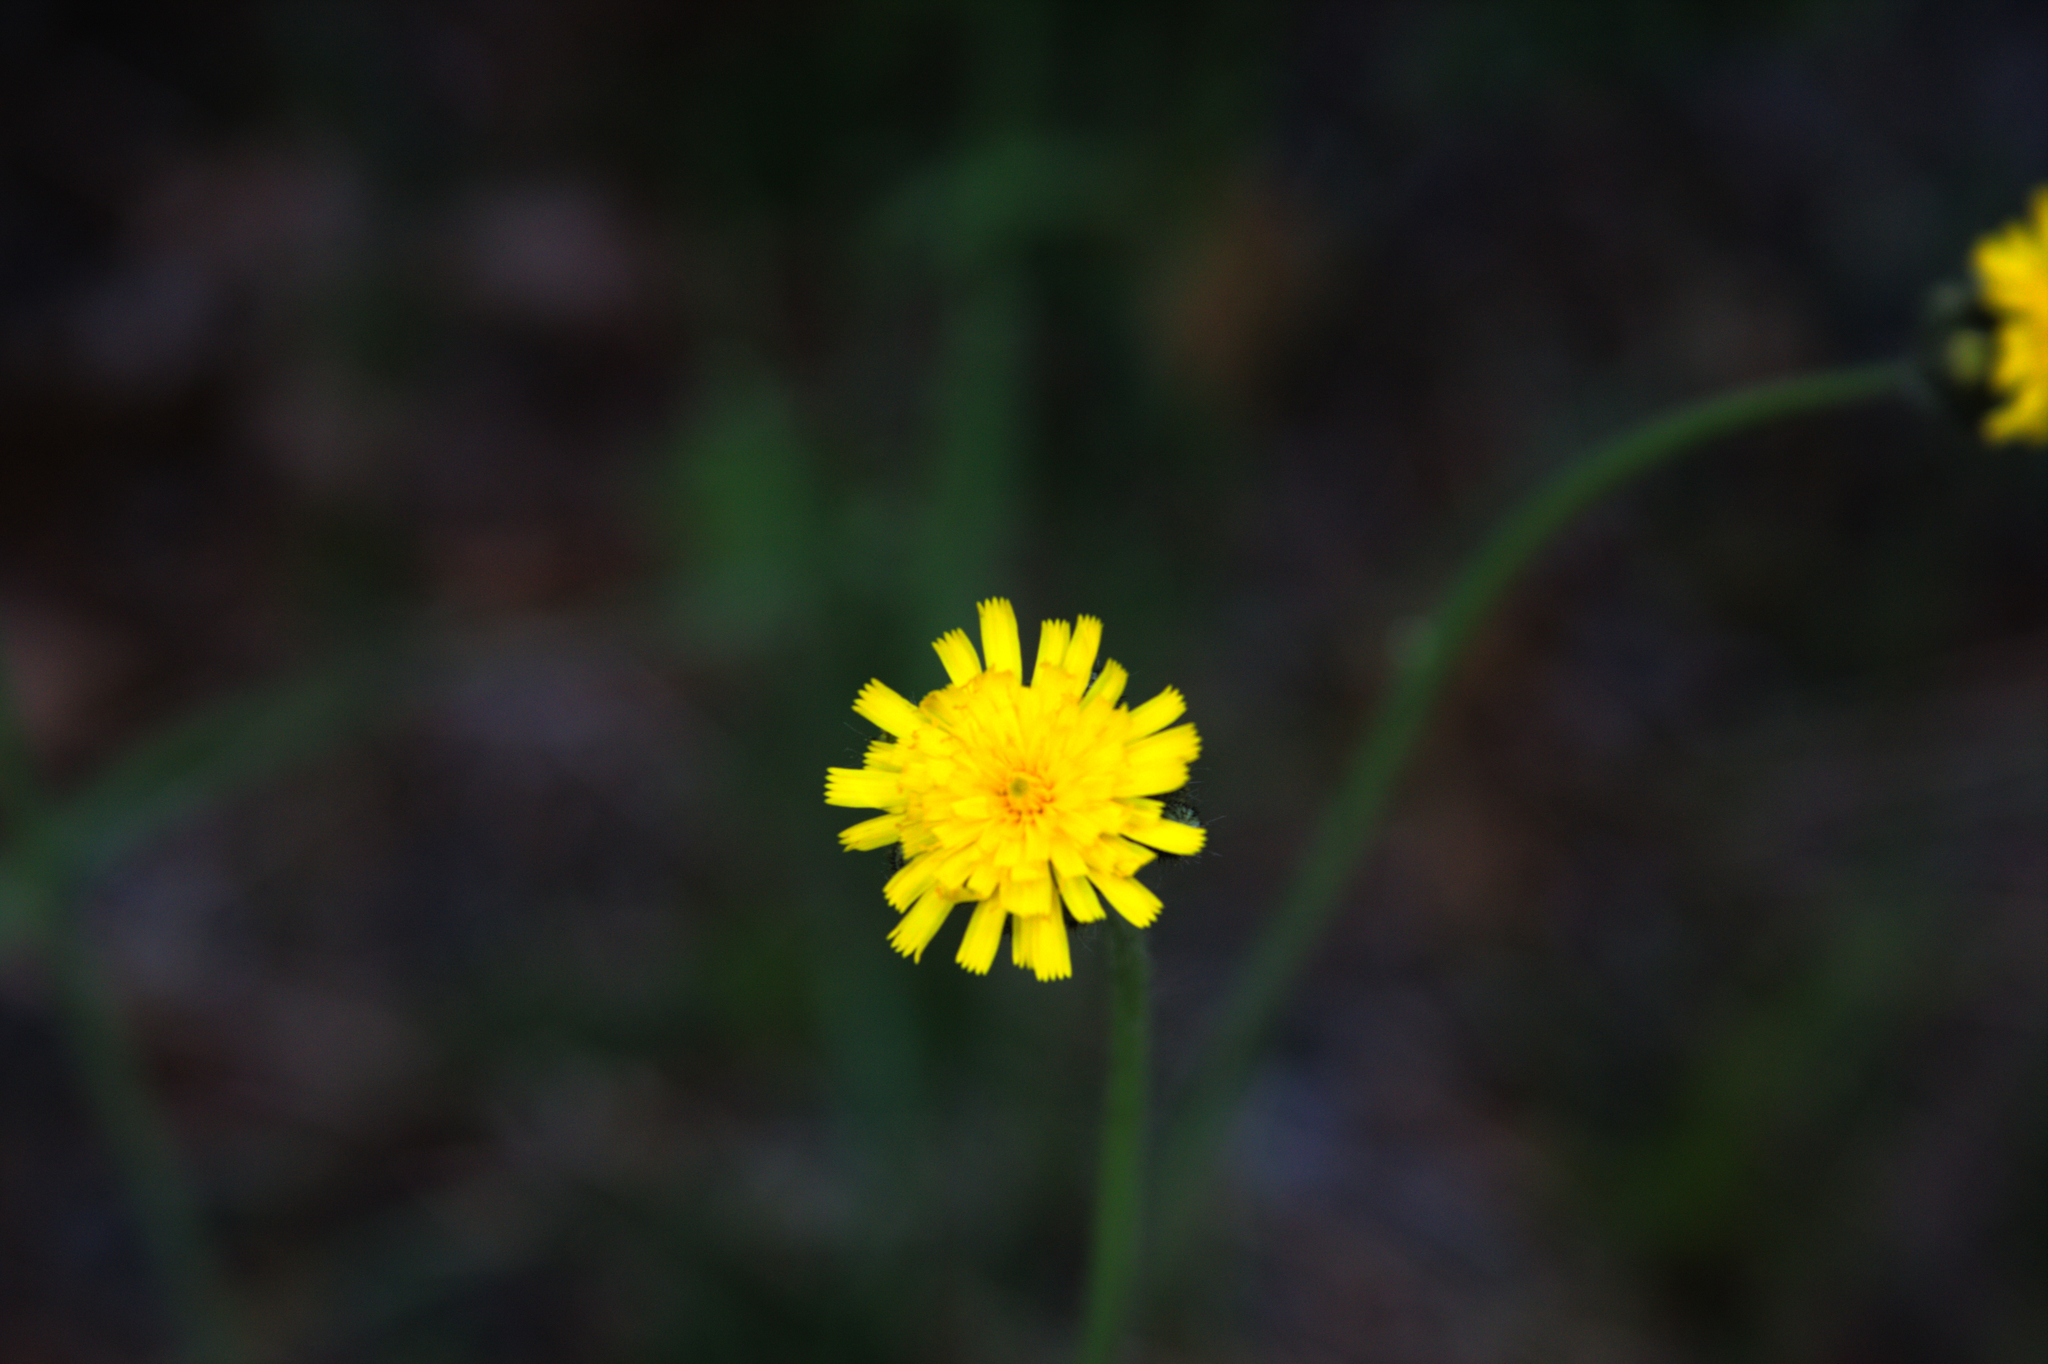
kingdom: Plantae
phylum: Tracheophyta
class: Magnoliopsida
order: Asterales
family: Asteraceae
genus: Pilosella
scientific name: Pilosella caespitosa
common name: Yellow fox-and-cubs
